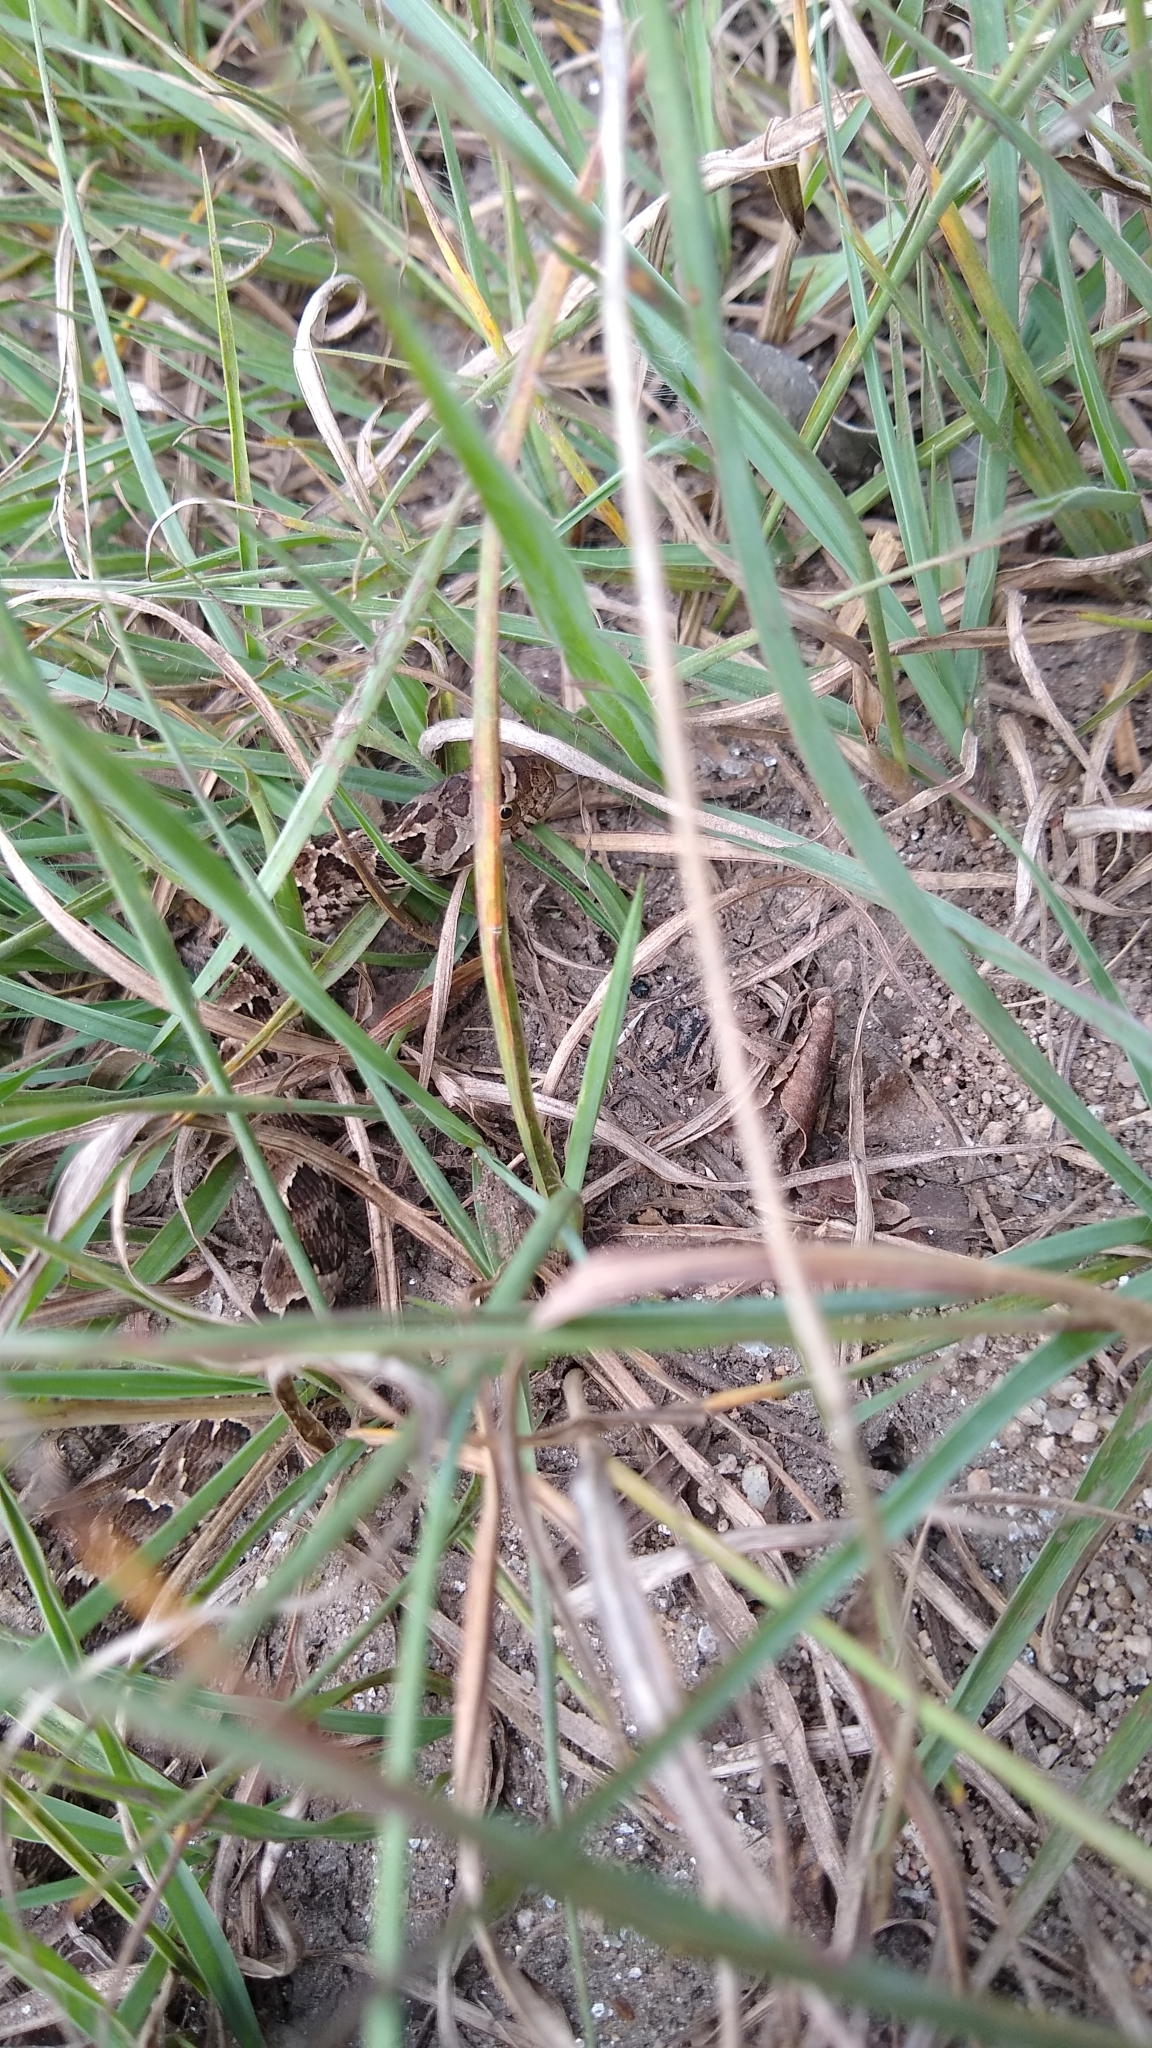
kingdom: Animalia
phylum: Chordata
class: Squamata
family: Colubridae
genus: Xenodon
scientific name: Xenodon merremii
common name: Wagler's snake
